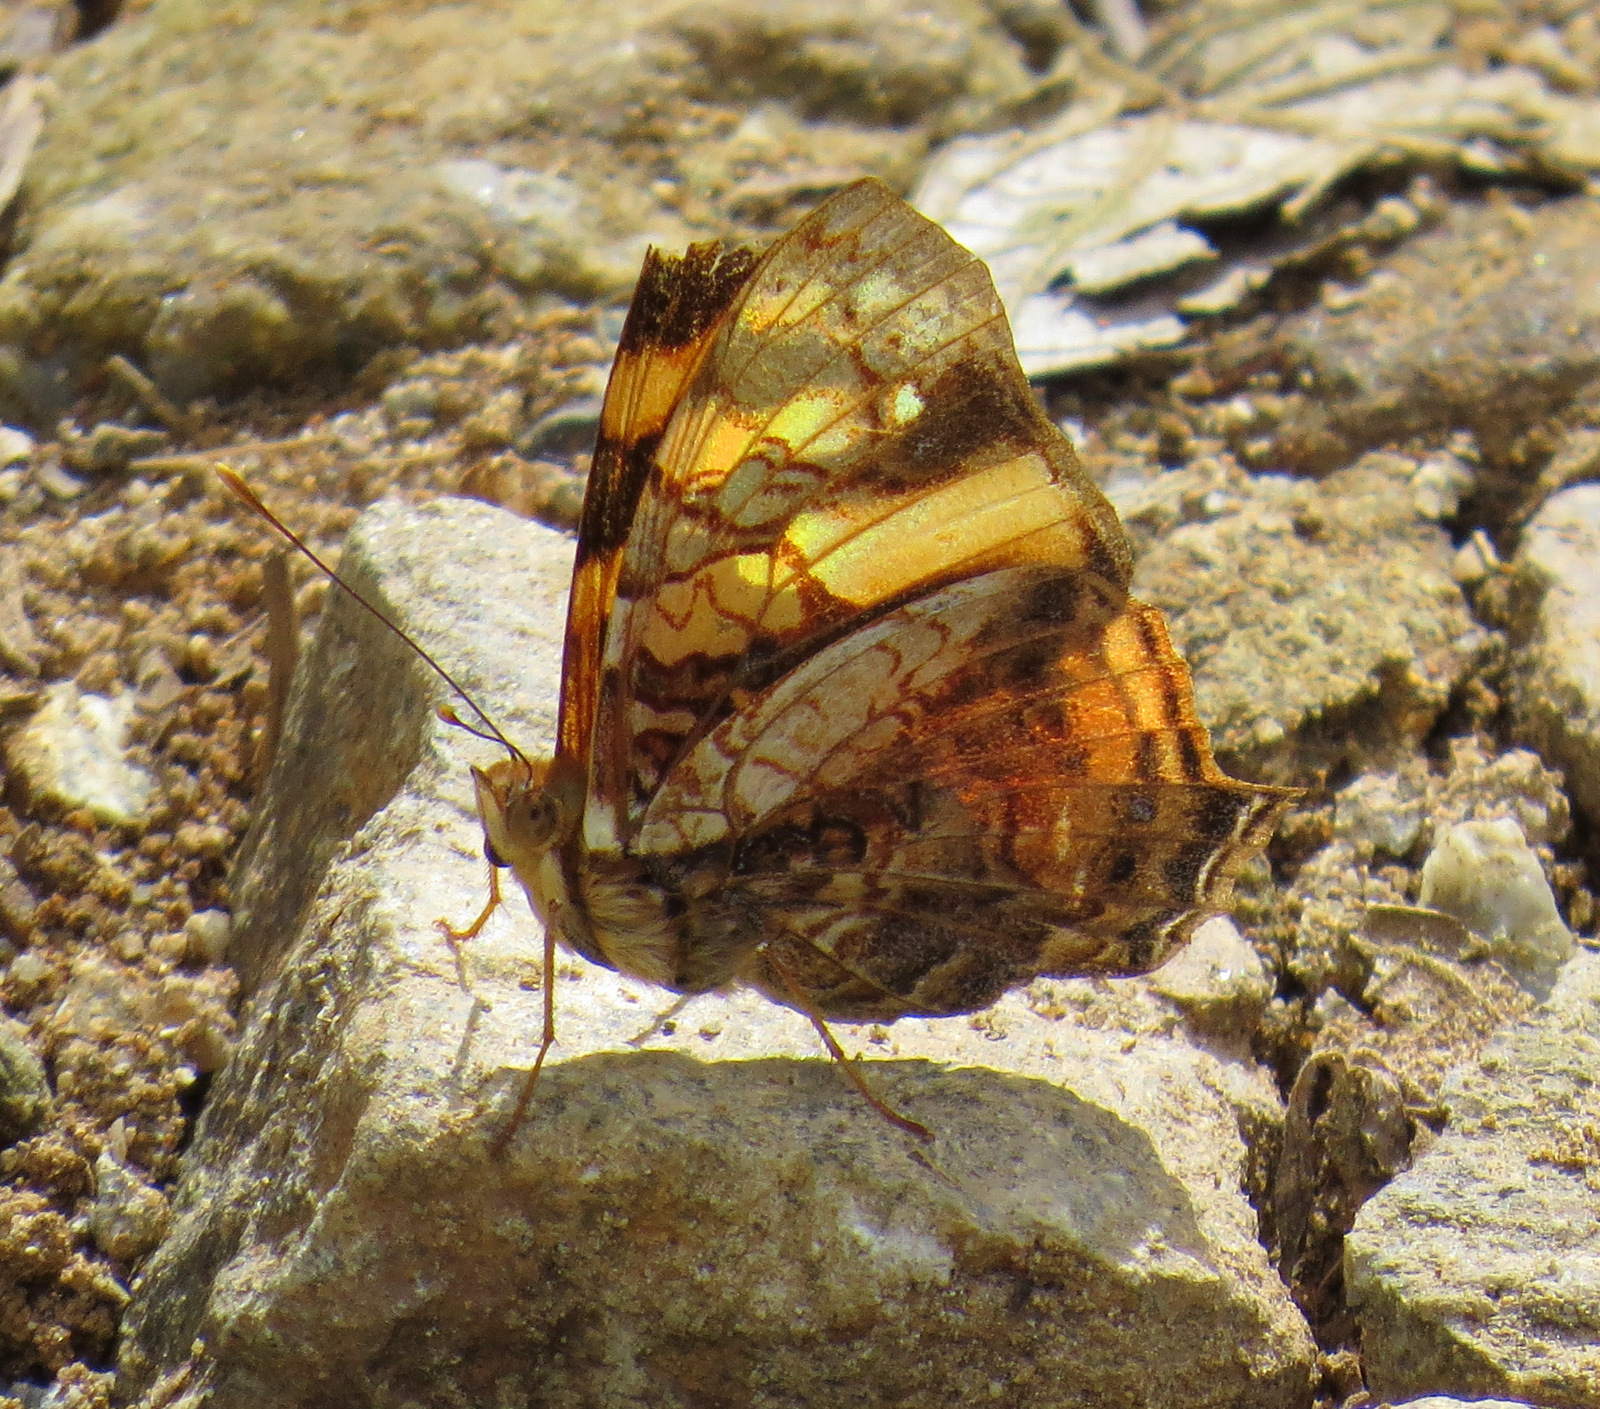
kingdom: Animalia
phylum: Arthropoda
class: Insecta
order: Lepidoptera
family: Nymphalidae
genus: Hypanartia
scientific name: Hypanartia lethe
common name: Orange mapwing
